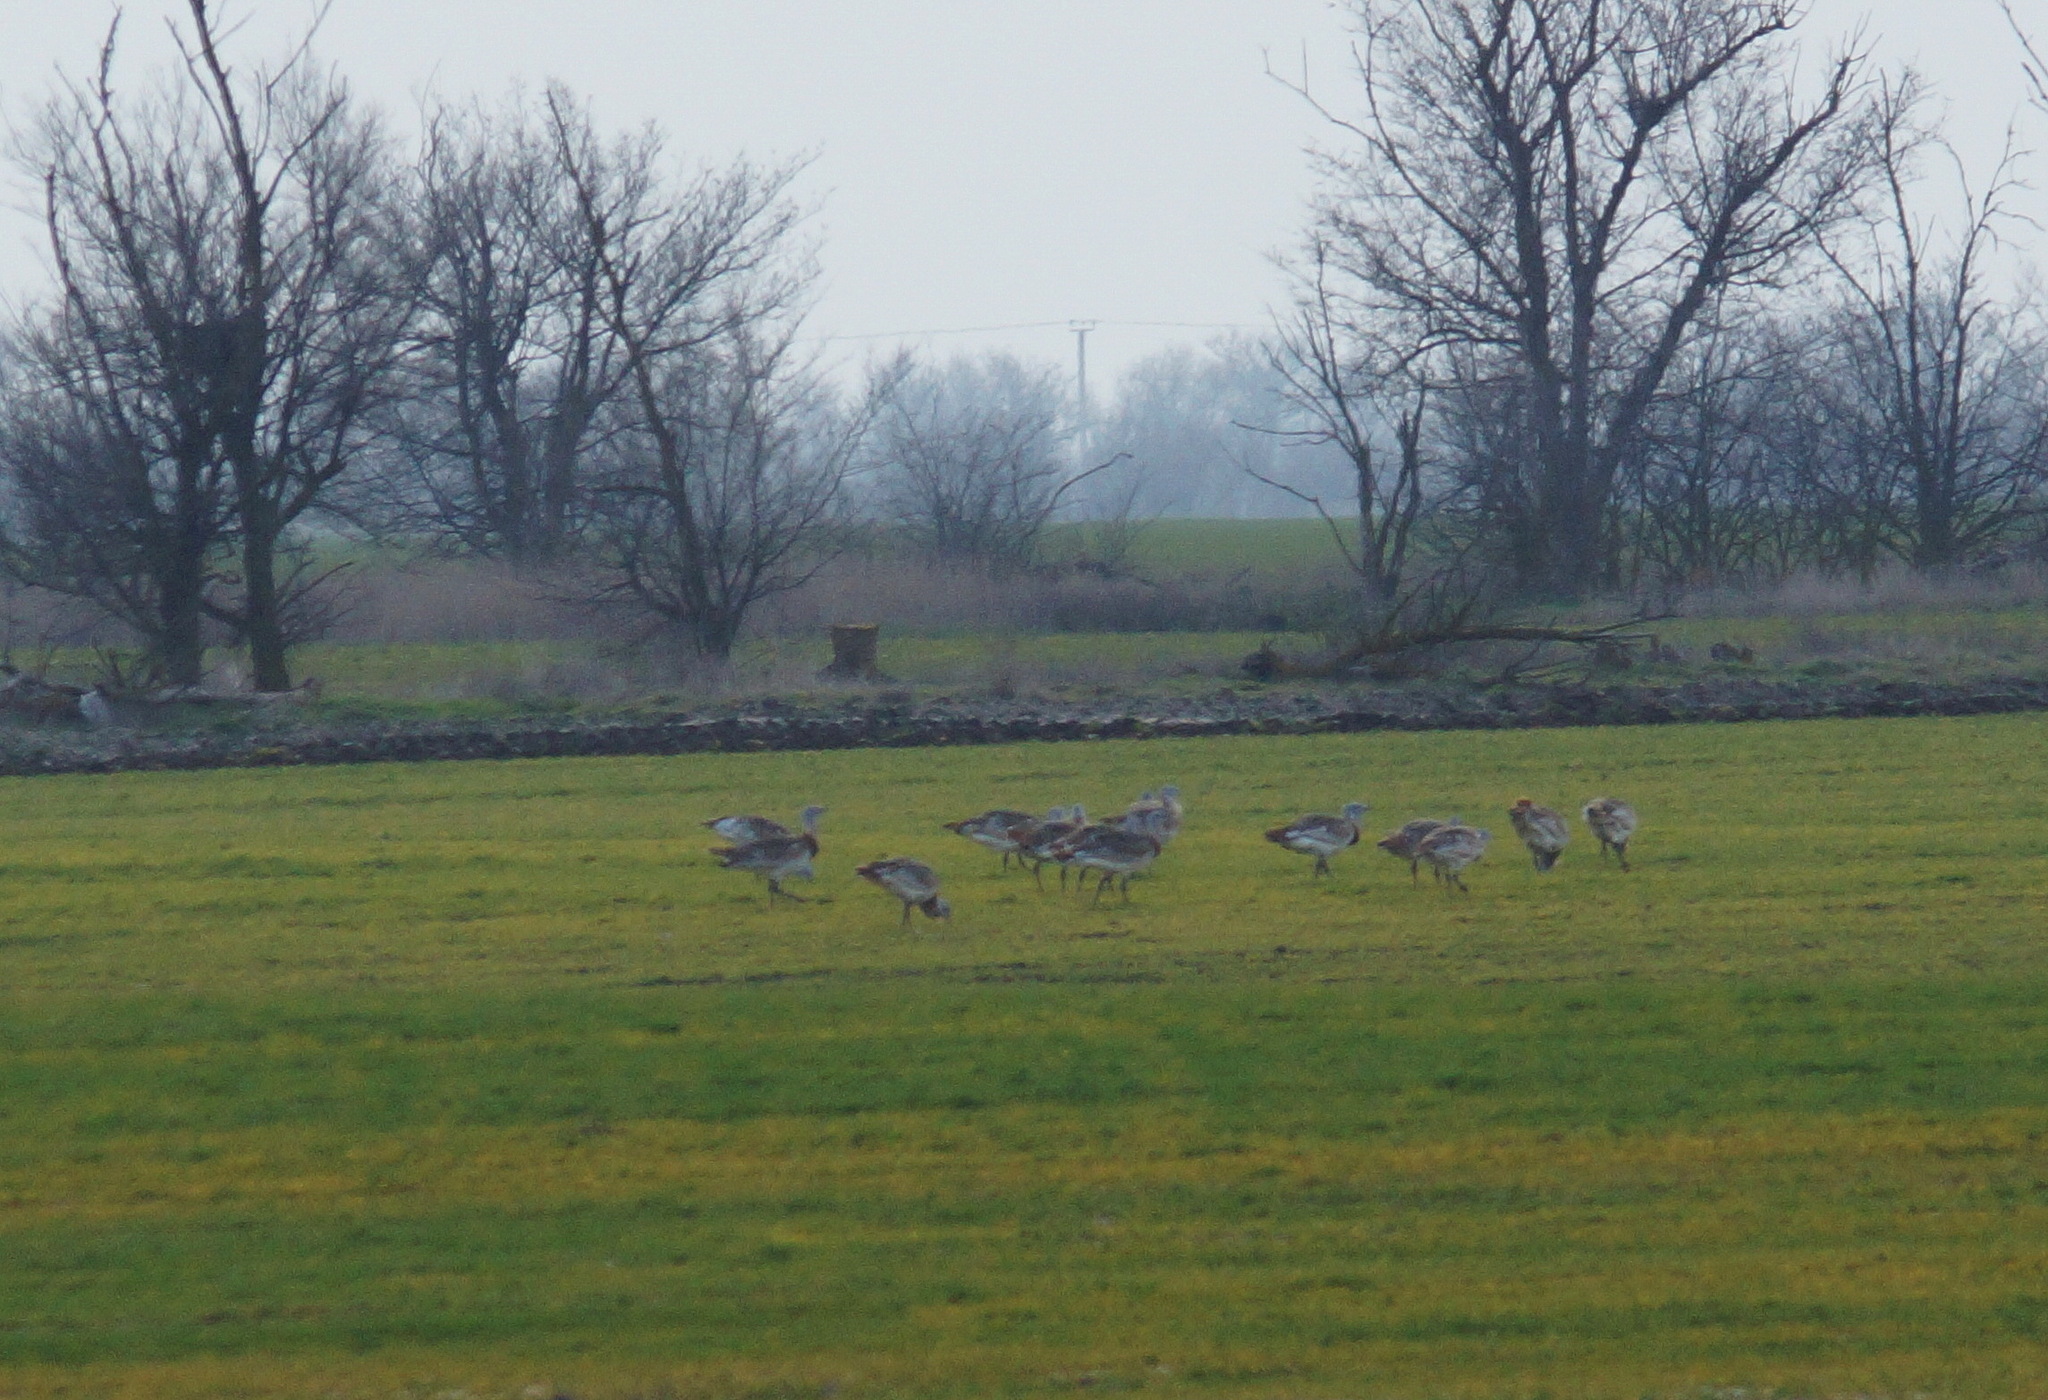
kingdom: Animalia
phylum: Chordata
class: Aves
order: Otidiformes
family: Otididae
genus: Otis
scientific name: Otis tarda
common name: Great bustard
